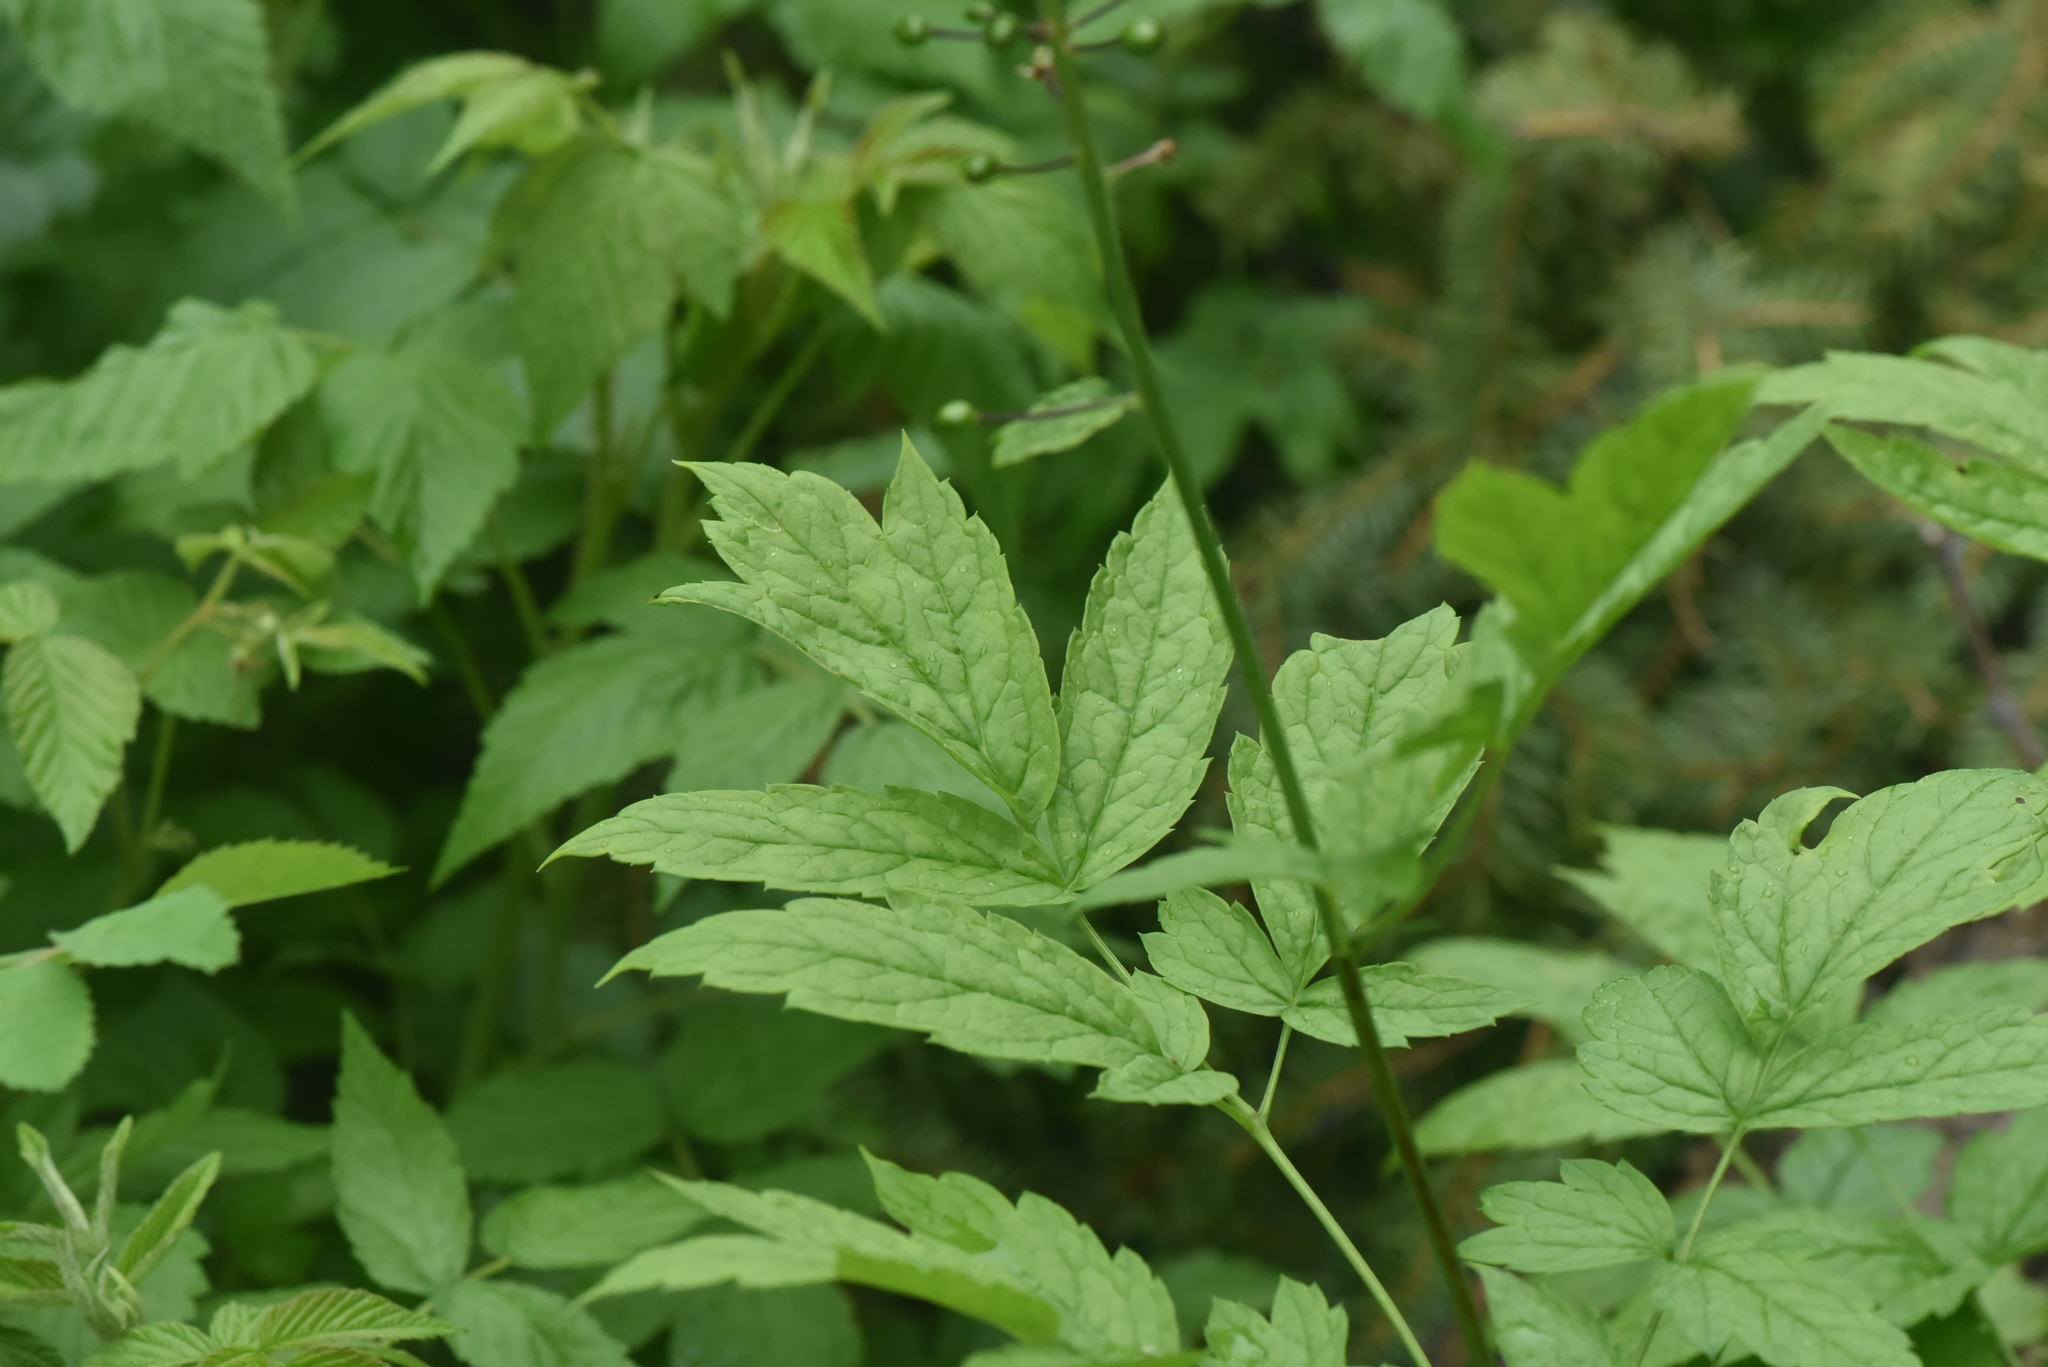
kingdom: Plantae
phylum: Tracheophyta
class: Magnoliopsida
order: Ranunculales
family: Ranunculaceae
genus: Actaea
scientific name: Actaea rubra
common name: Red baneberry
